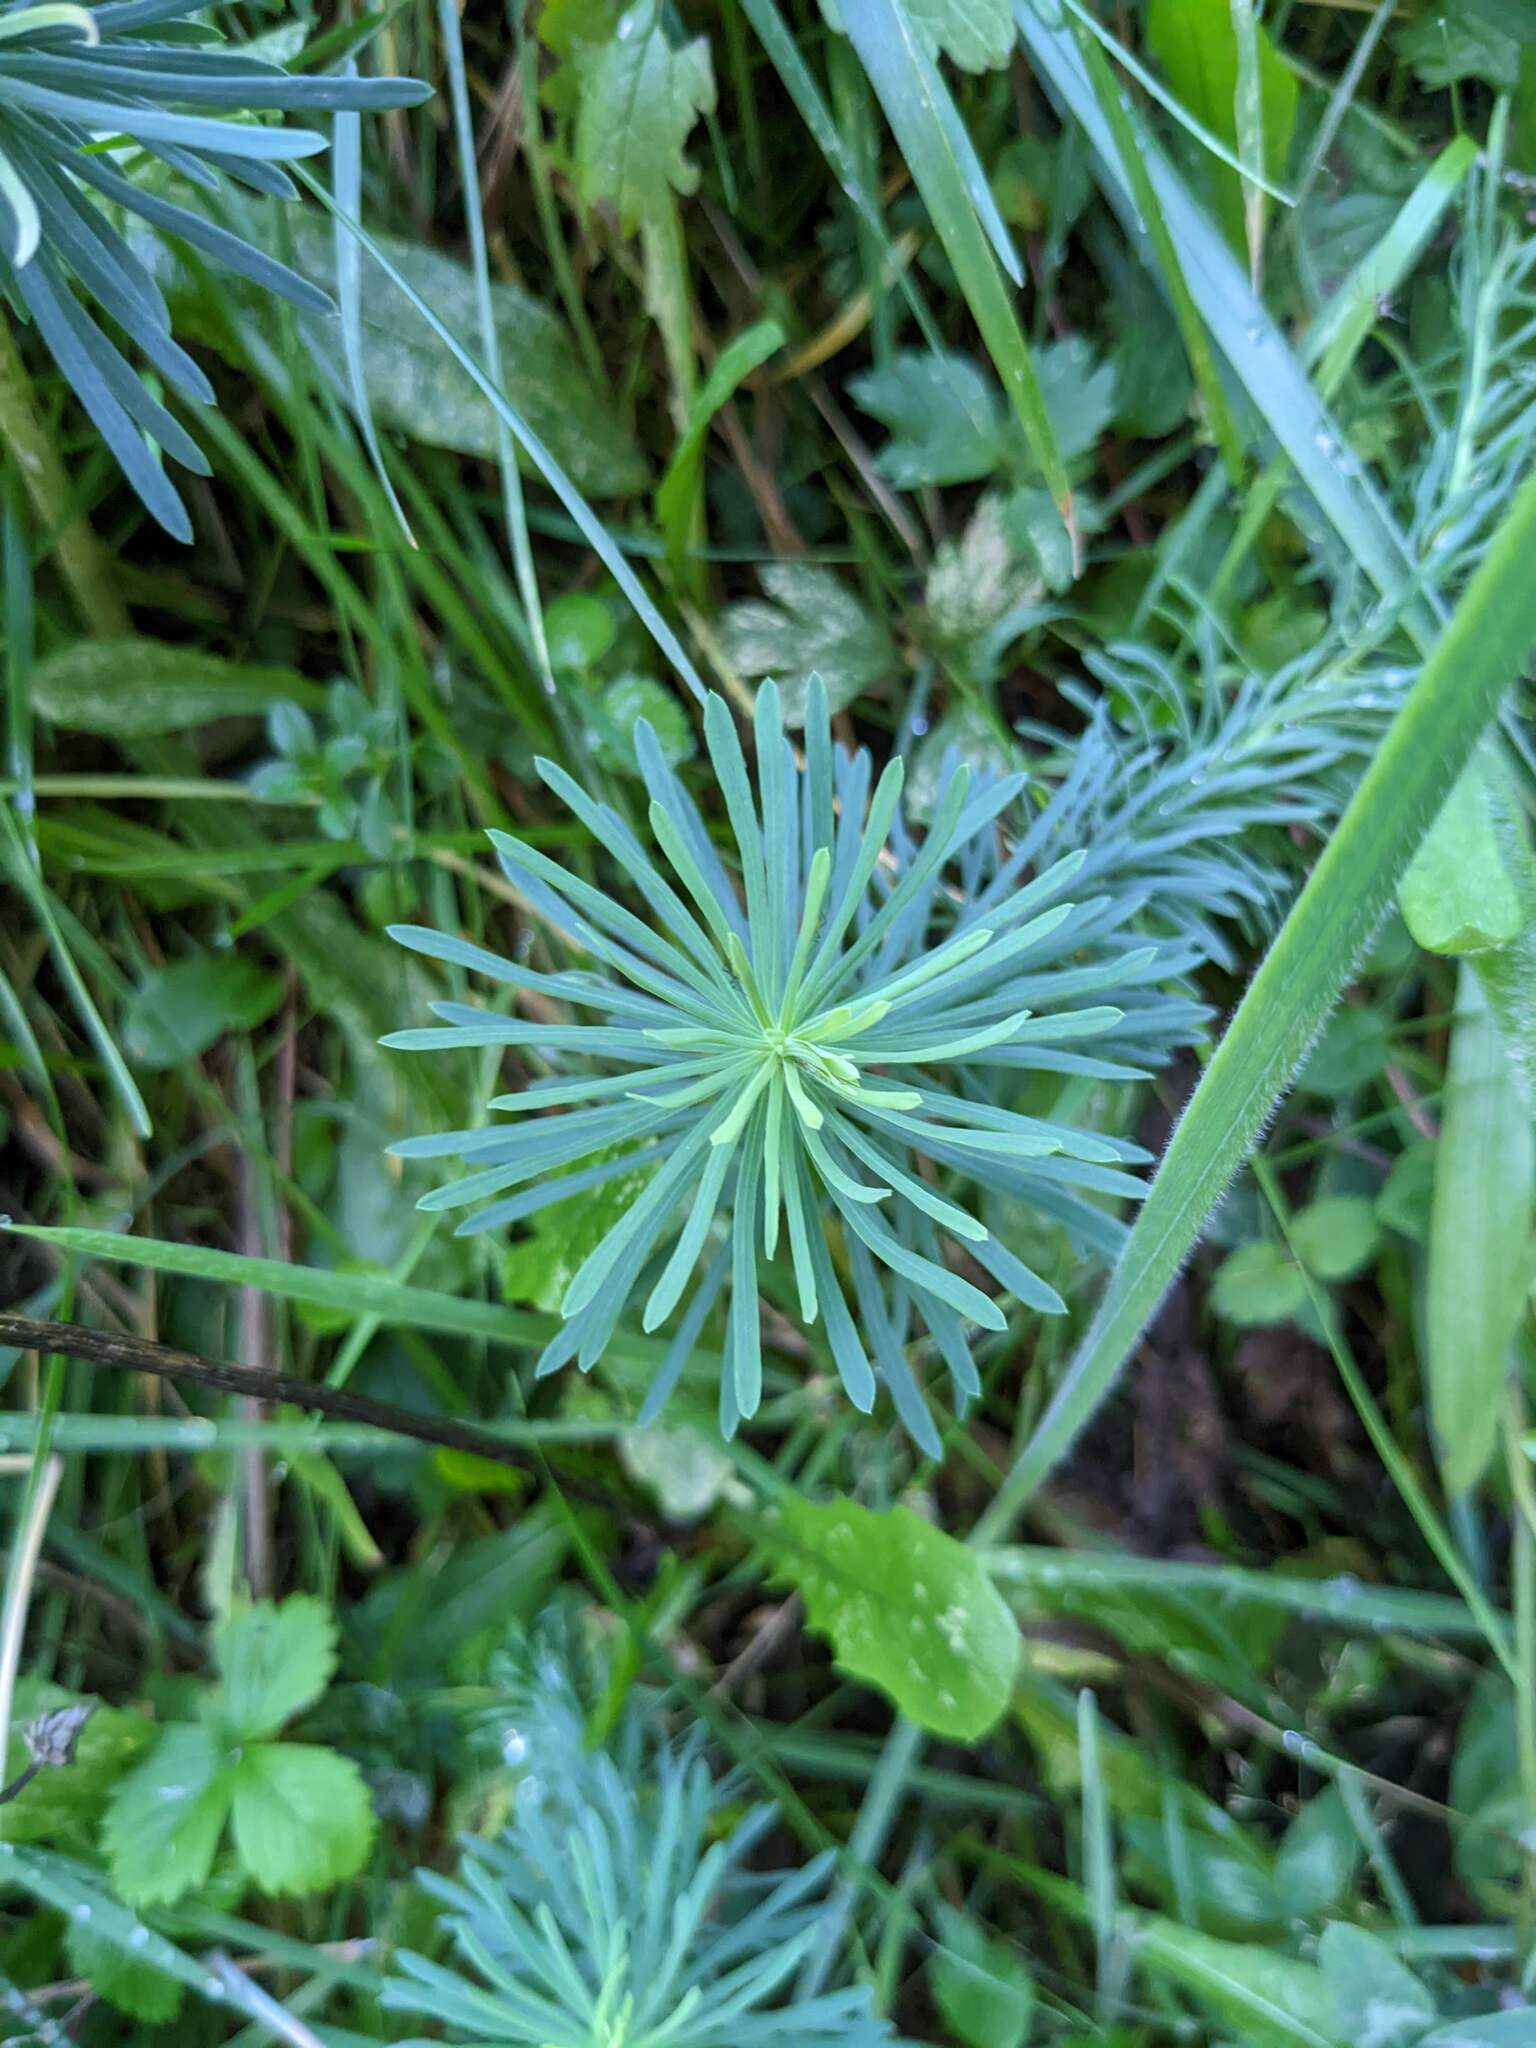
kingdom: Plantae
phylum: Tracheophyta
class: Magnoliopsida
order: Malpighiales
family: Euphorbiaceae
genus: Euphorbia
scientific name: Euphorbia cyparissias
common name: Cypress spurge
